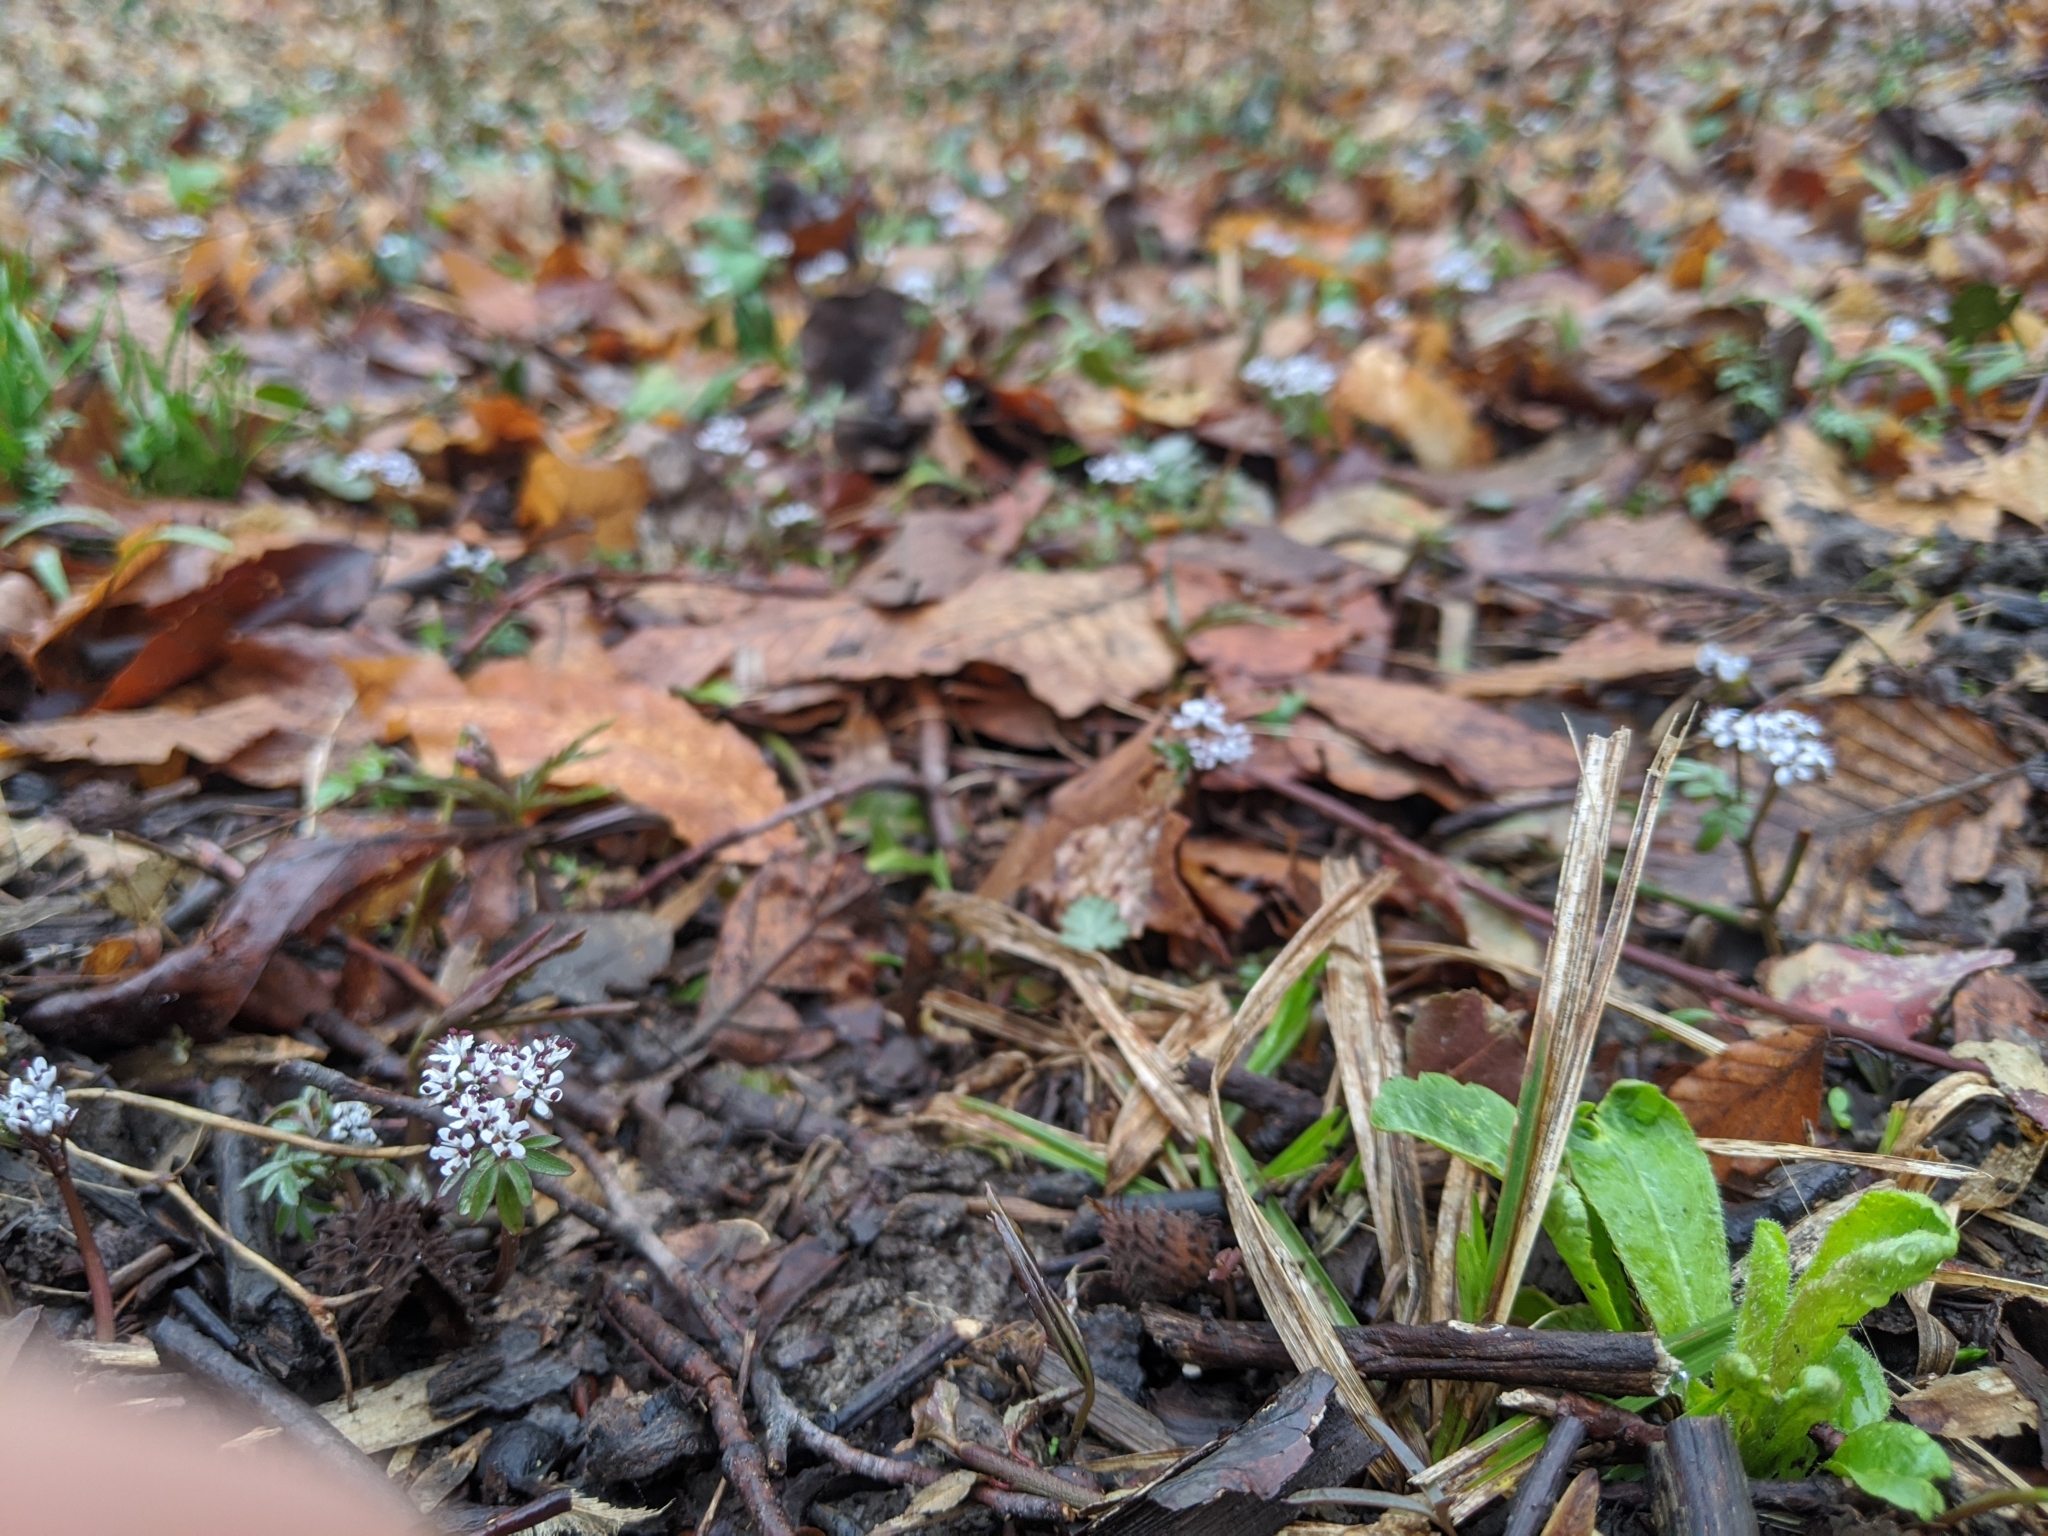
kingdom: Plantae
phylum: Tracheophyta
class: Magnoliopsida
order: Apiales
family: Apiaceae
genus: Erigenia
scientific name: Erigenia bulbosa
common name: Pepper-and-salt
